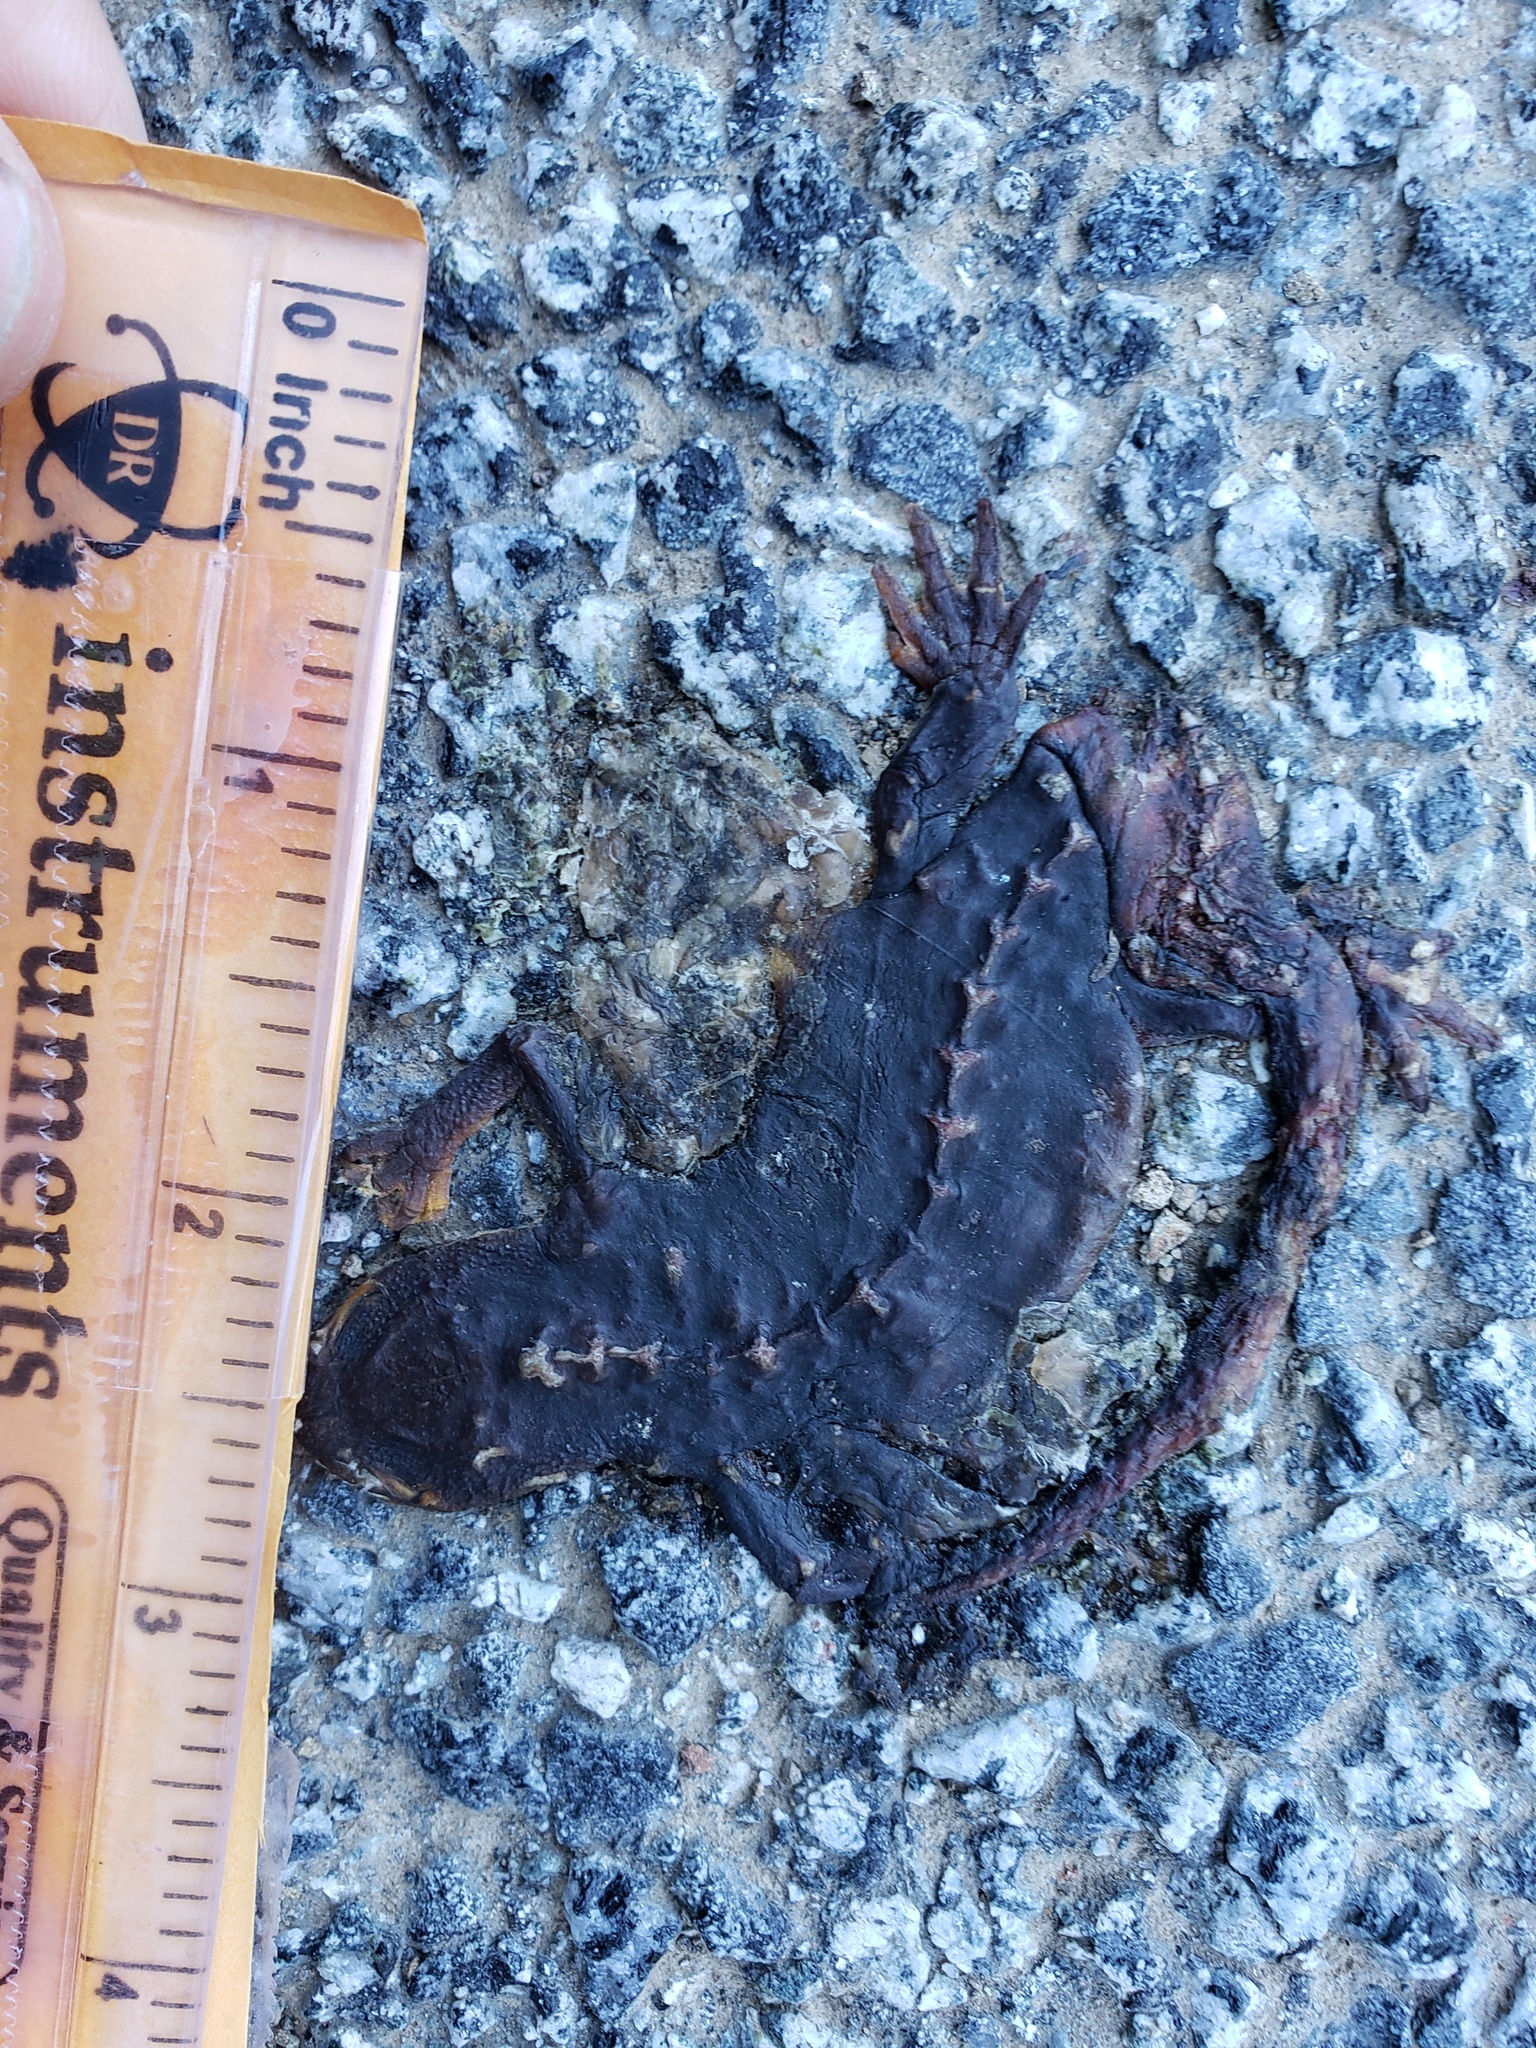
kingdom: Animalia
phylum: Chordata
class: Amphibia
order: Caudata
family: Salamandridae
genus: Taricha
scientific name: Taricha
